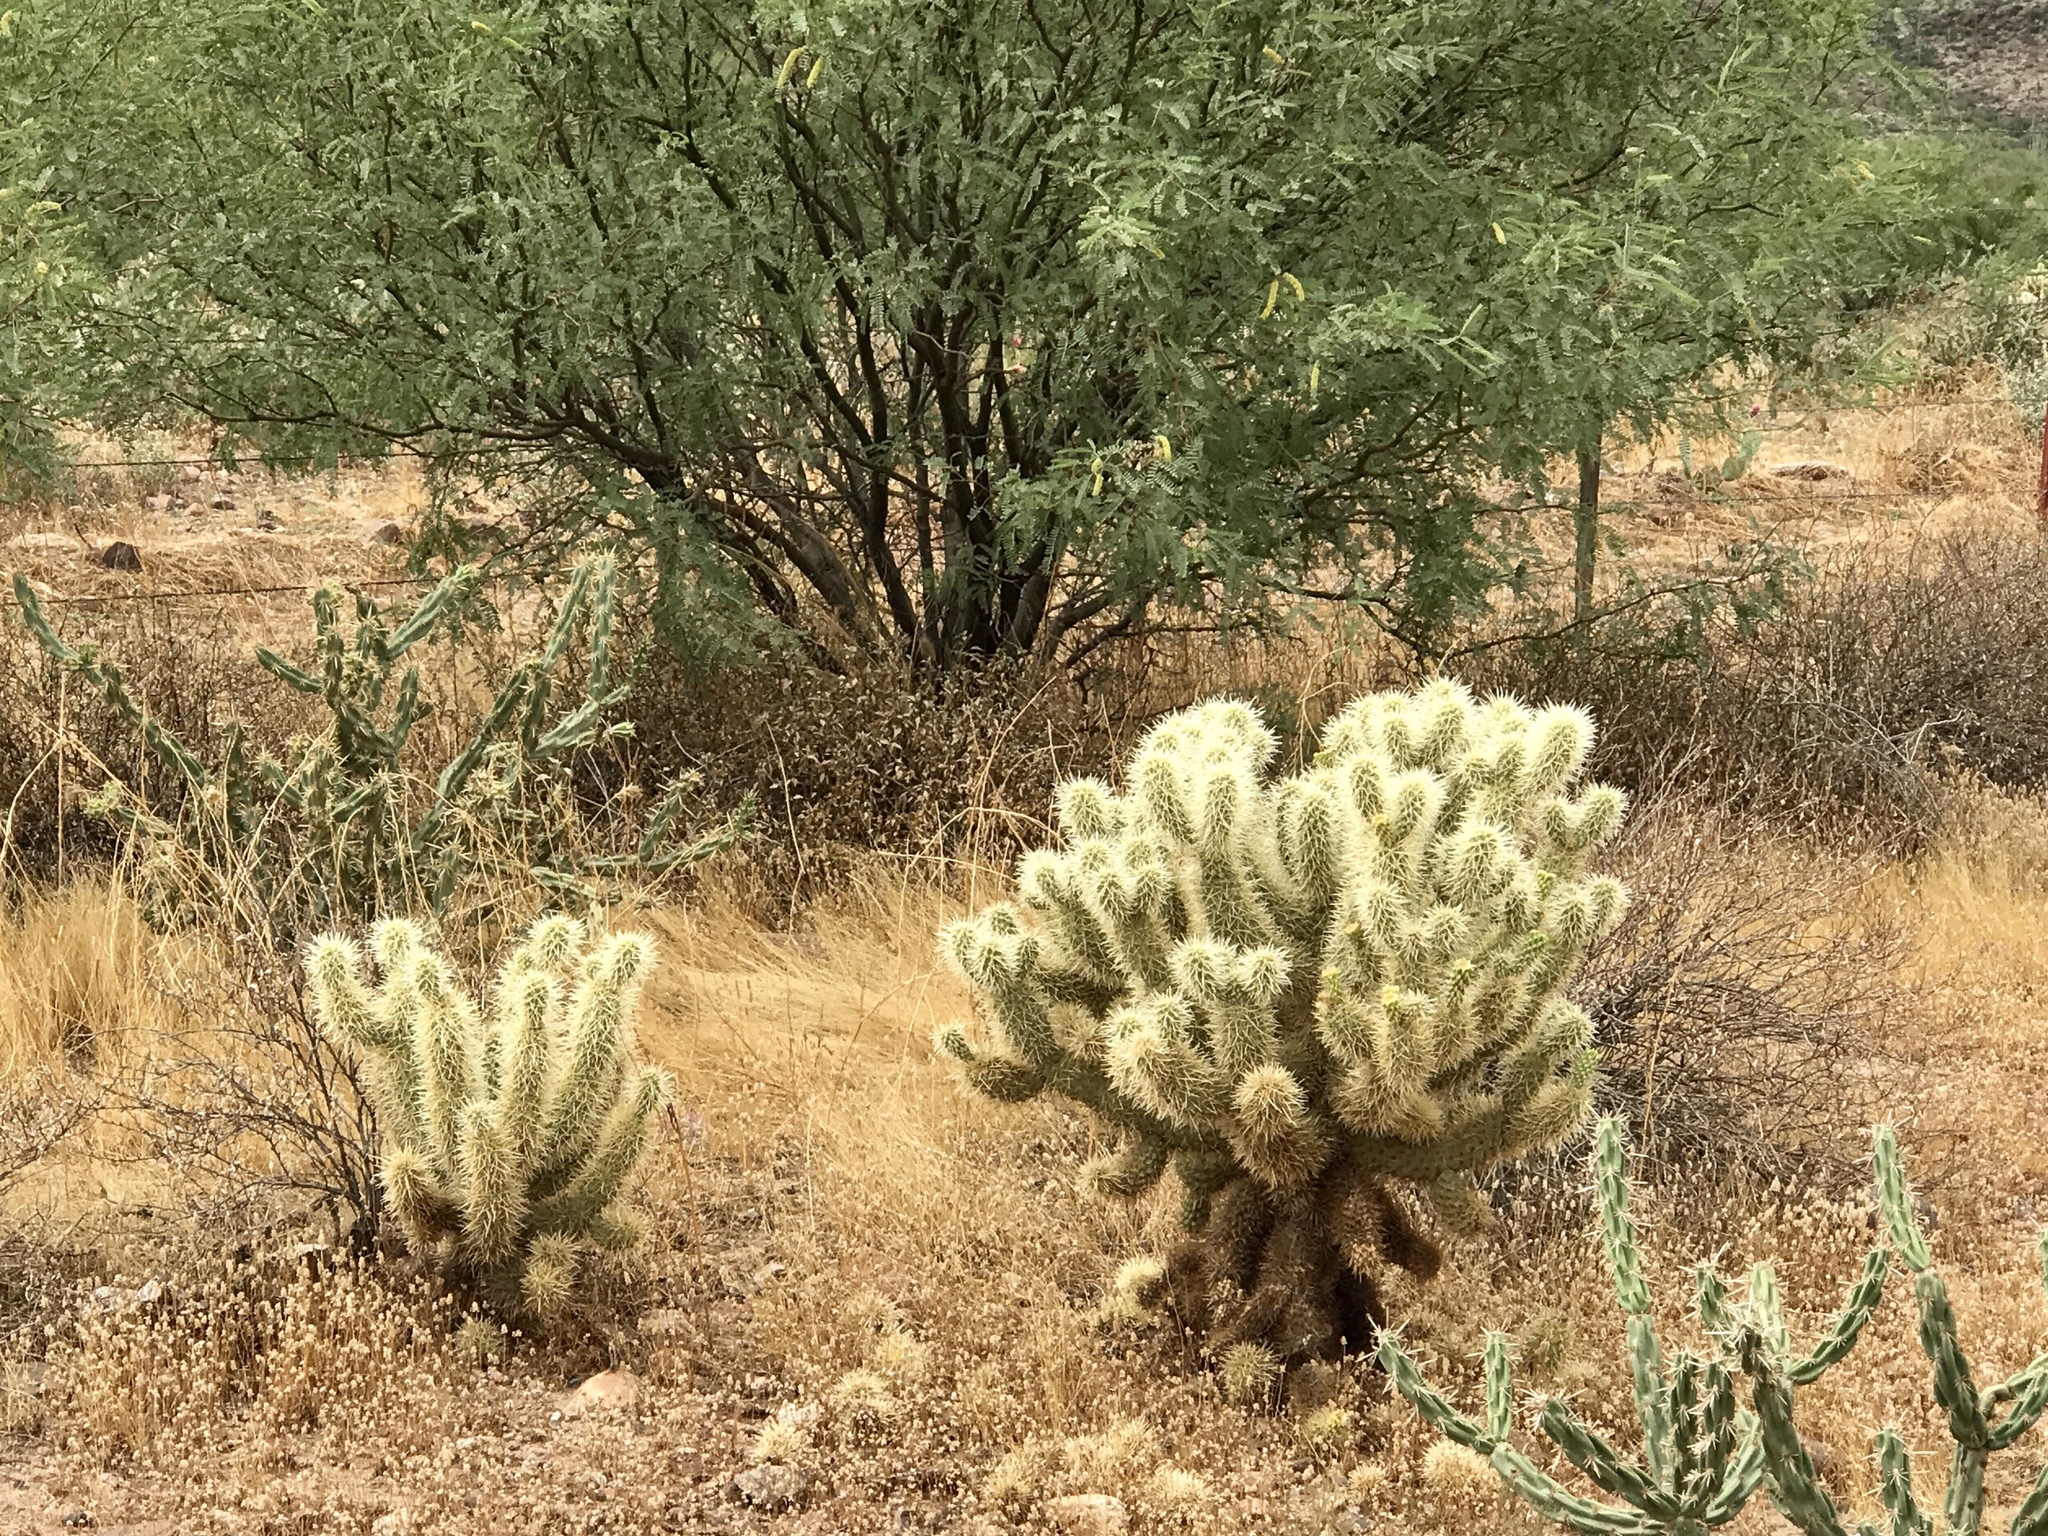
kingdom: Plantae
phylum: Tracheophyta
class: Magnoliopsida
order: Caryophyllales
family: Cactaceae
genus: Cylindropuntia
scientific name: Cylindropuntia fosbergii
